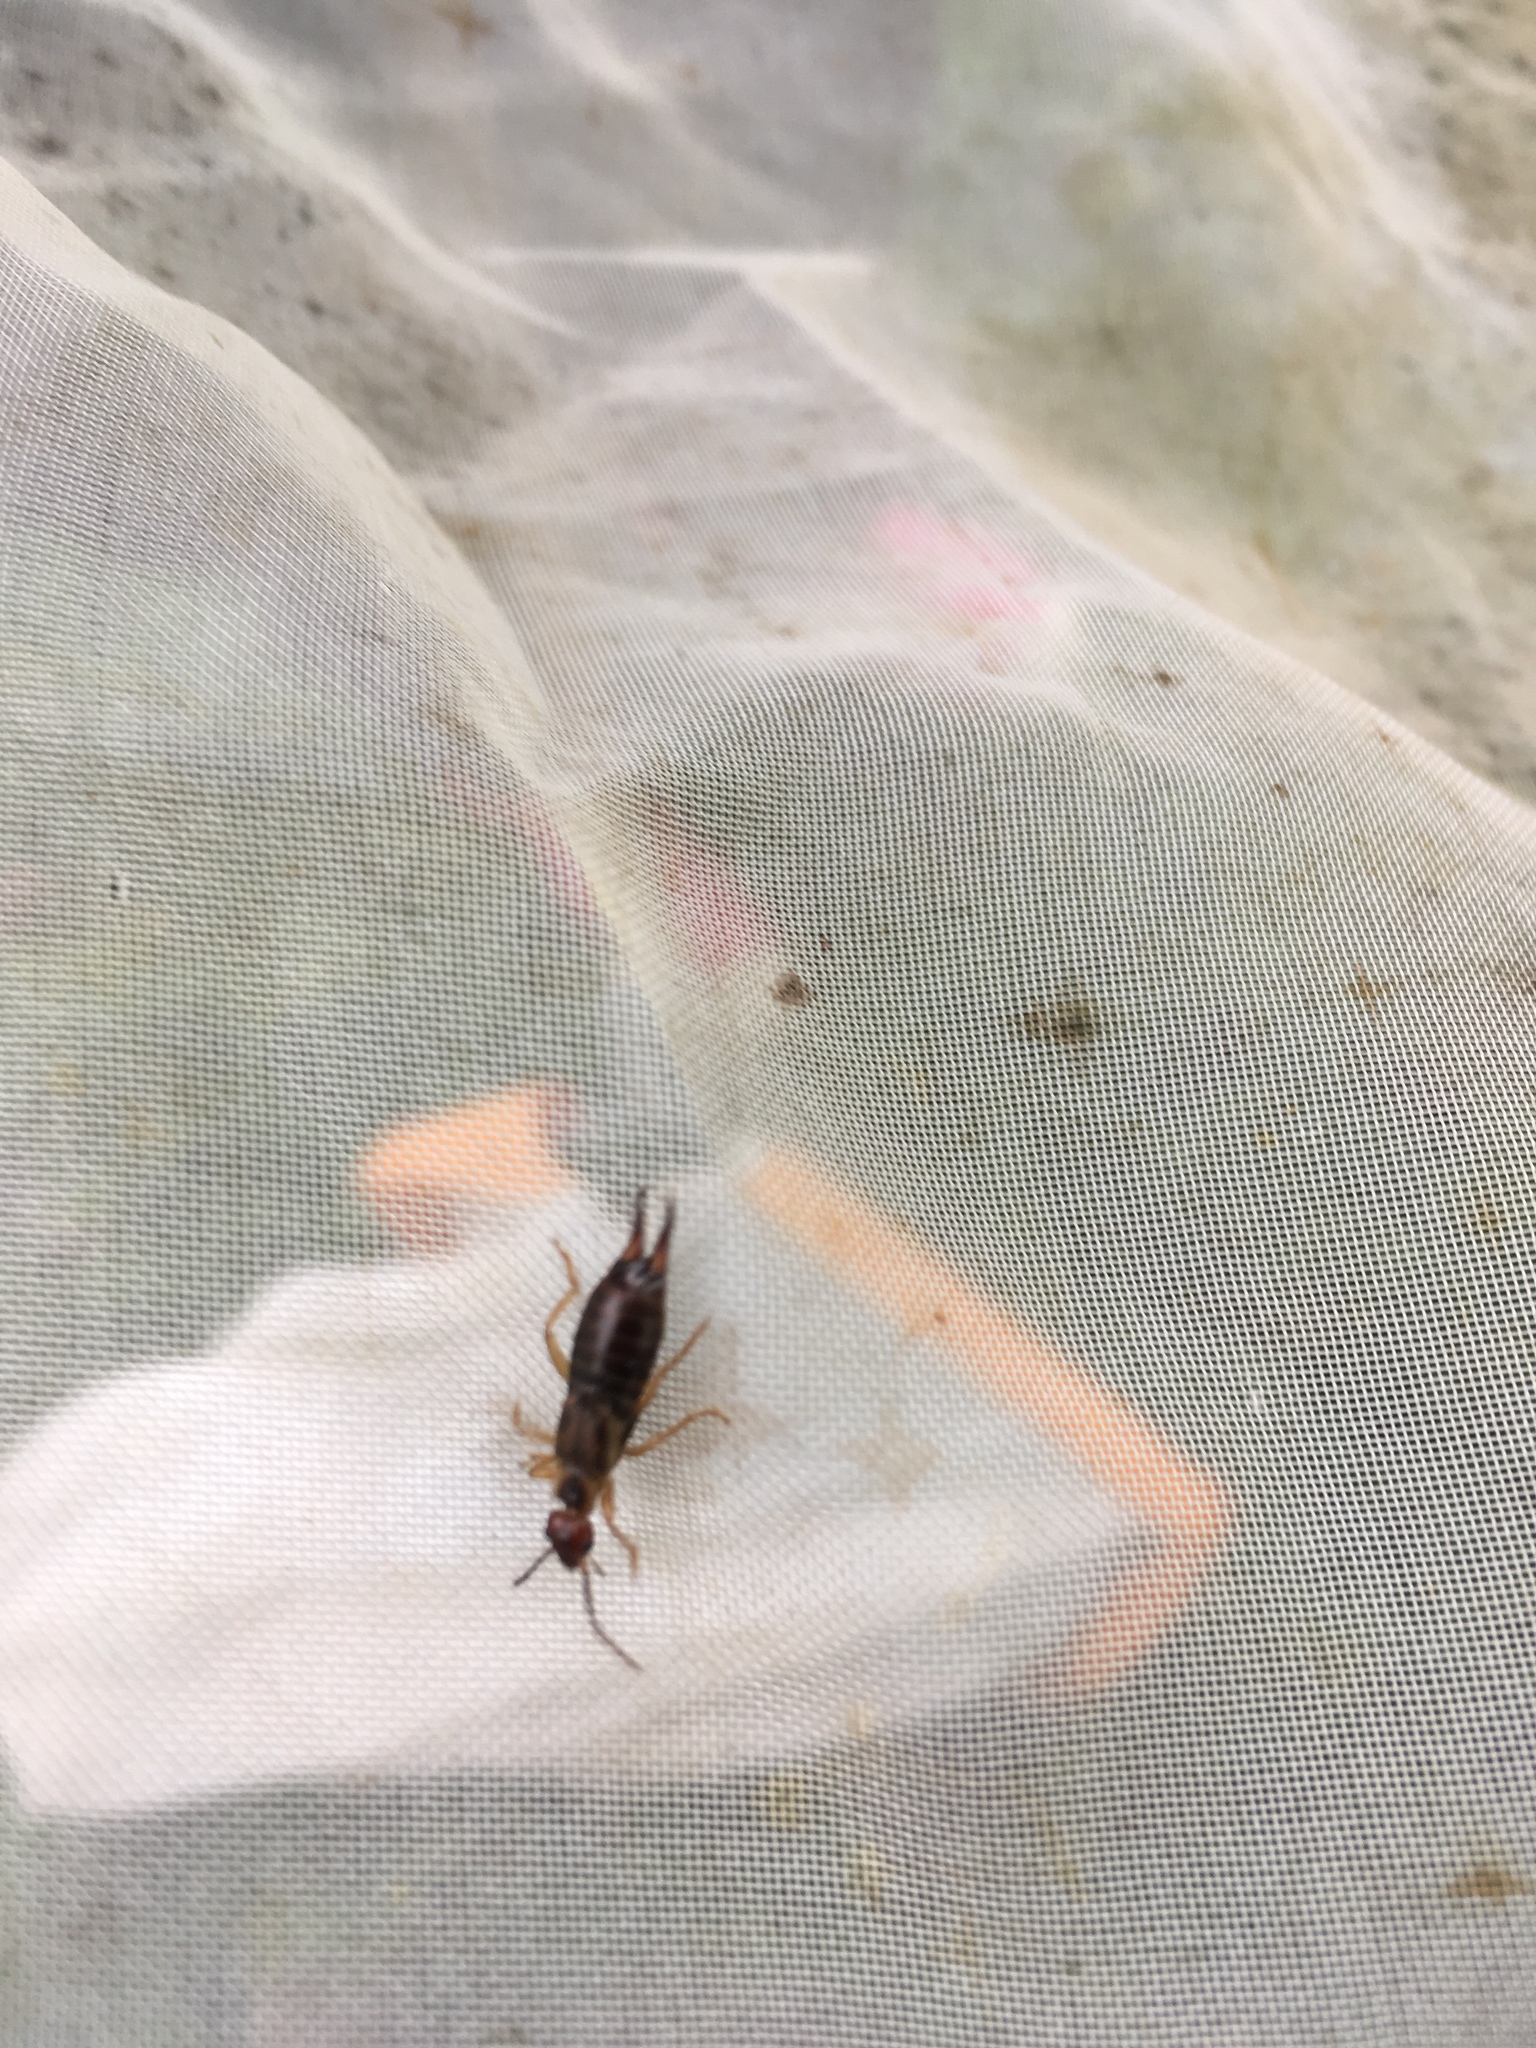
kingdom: Animalia
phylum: Arthropoda
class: Insecta
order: Dermaptera
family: Forficulidae
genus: Forficula
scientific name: Forficula
